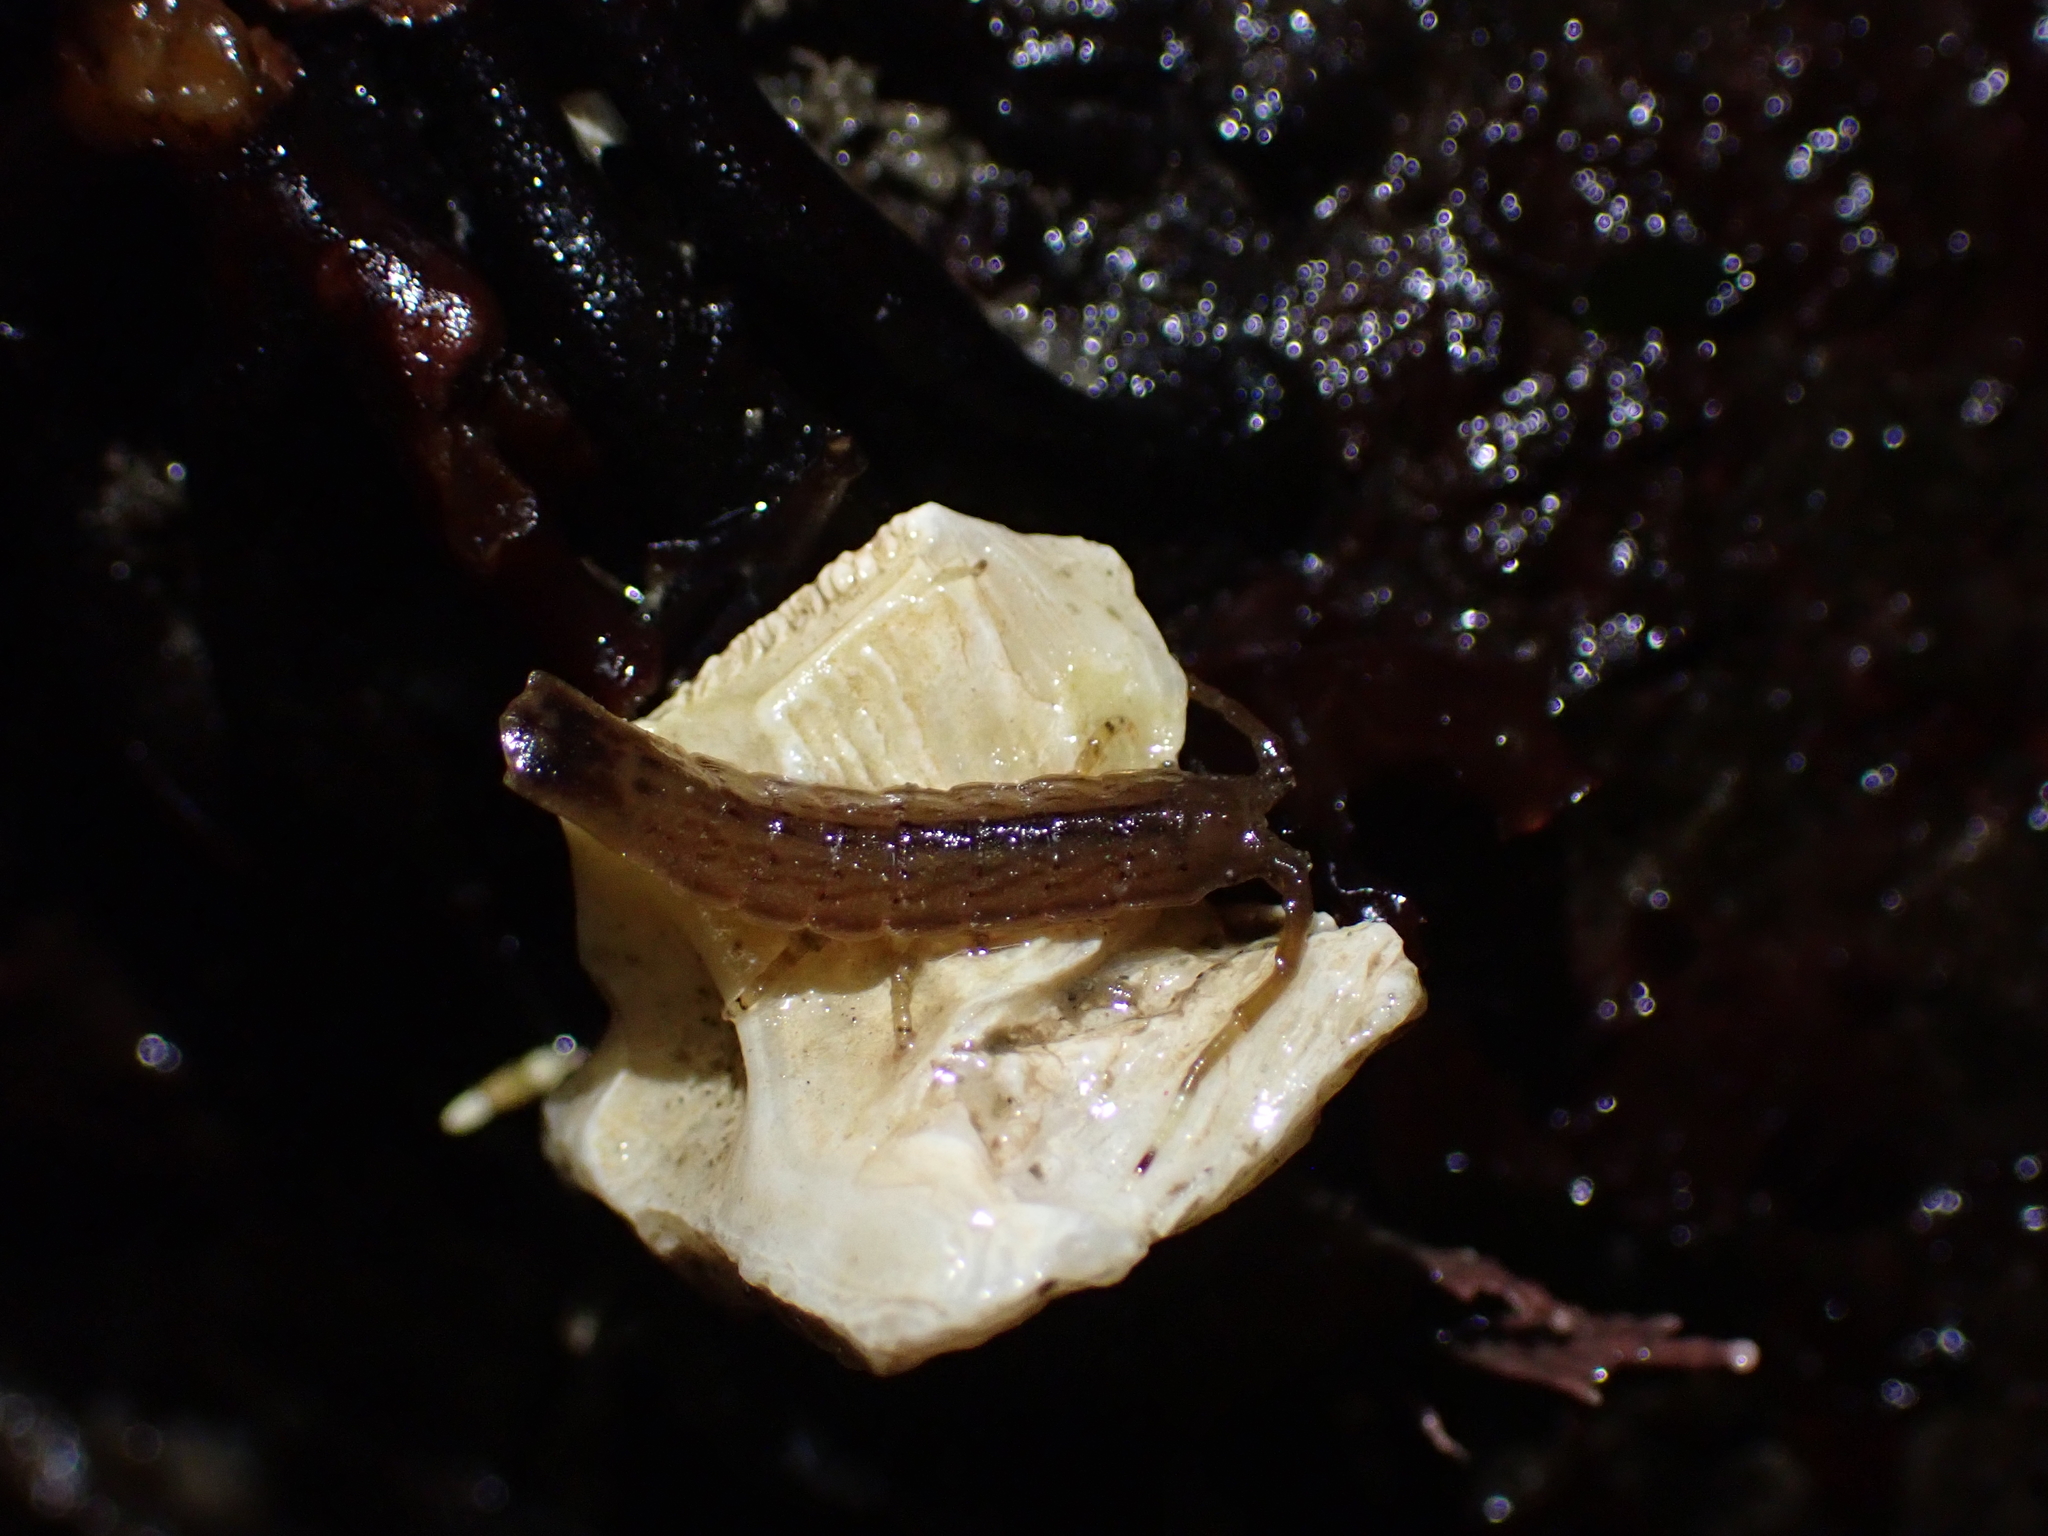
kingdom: Animalia
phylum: Arthropoda
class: Malacostraca
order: Isopoda
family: Idoteidae
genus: Idotea
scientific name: Idotea urotoma
